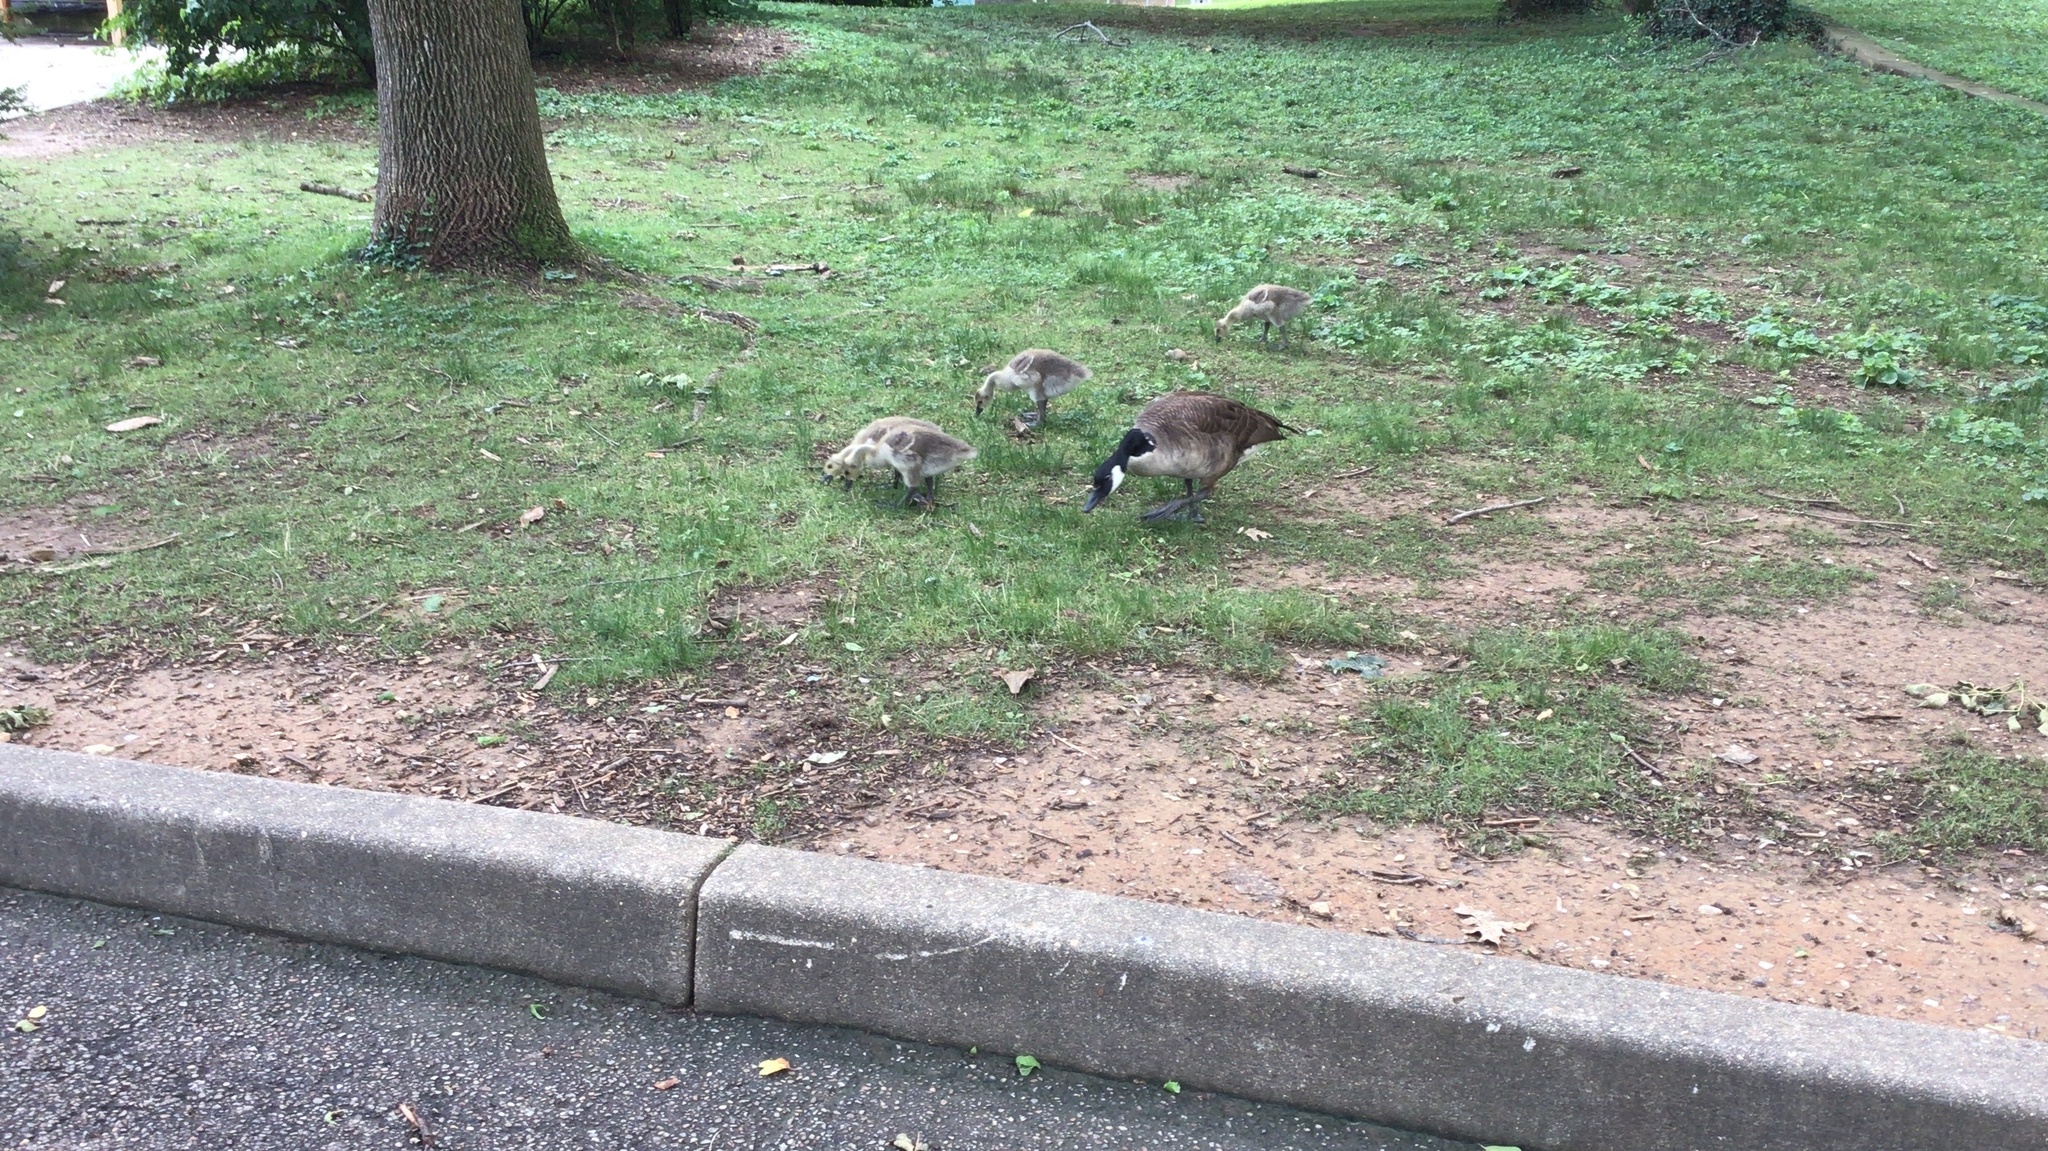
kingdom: Animalia
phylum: Chordata
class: Aves
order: Anseriformes
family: Anatidae
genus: Branta
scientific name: Branta canadensis
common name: Canada goose
